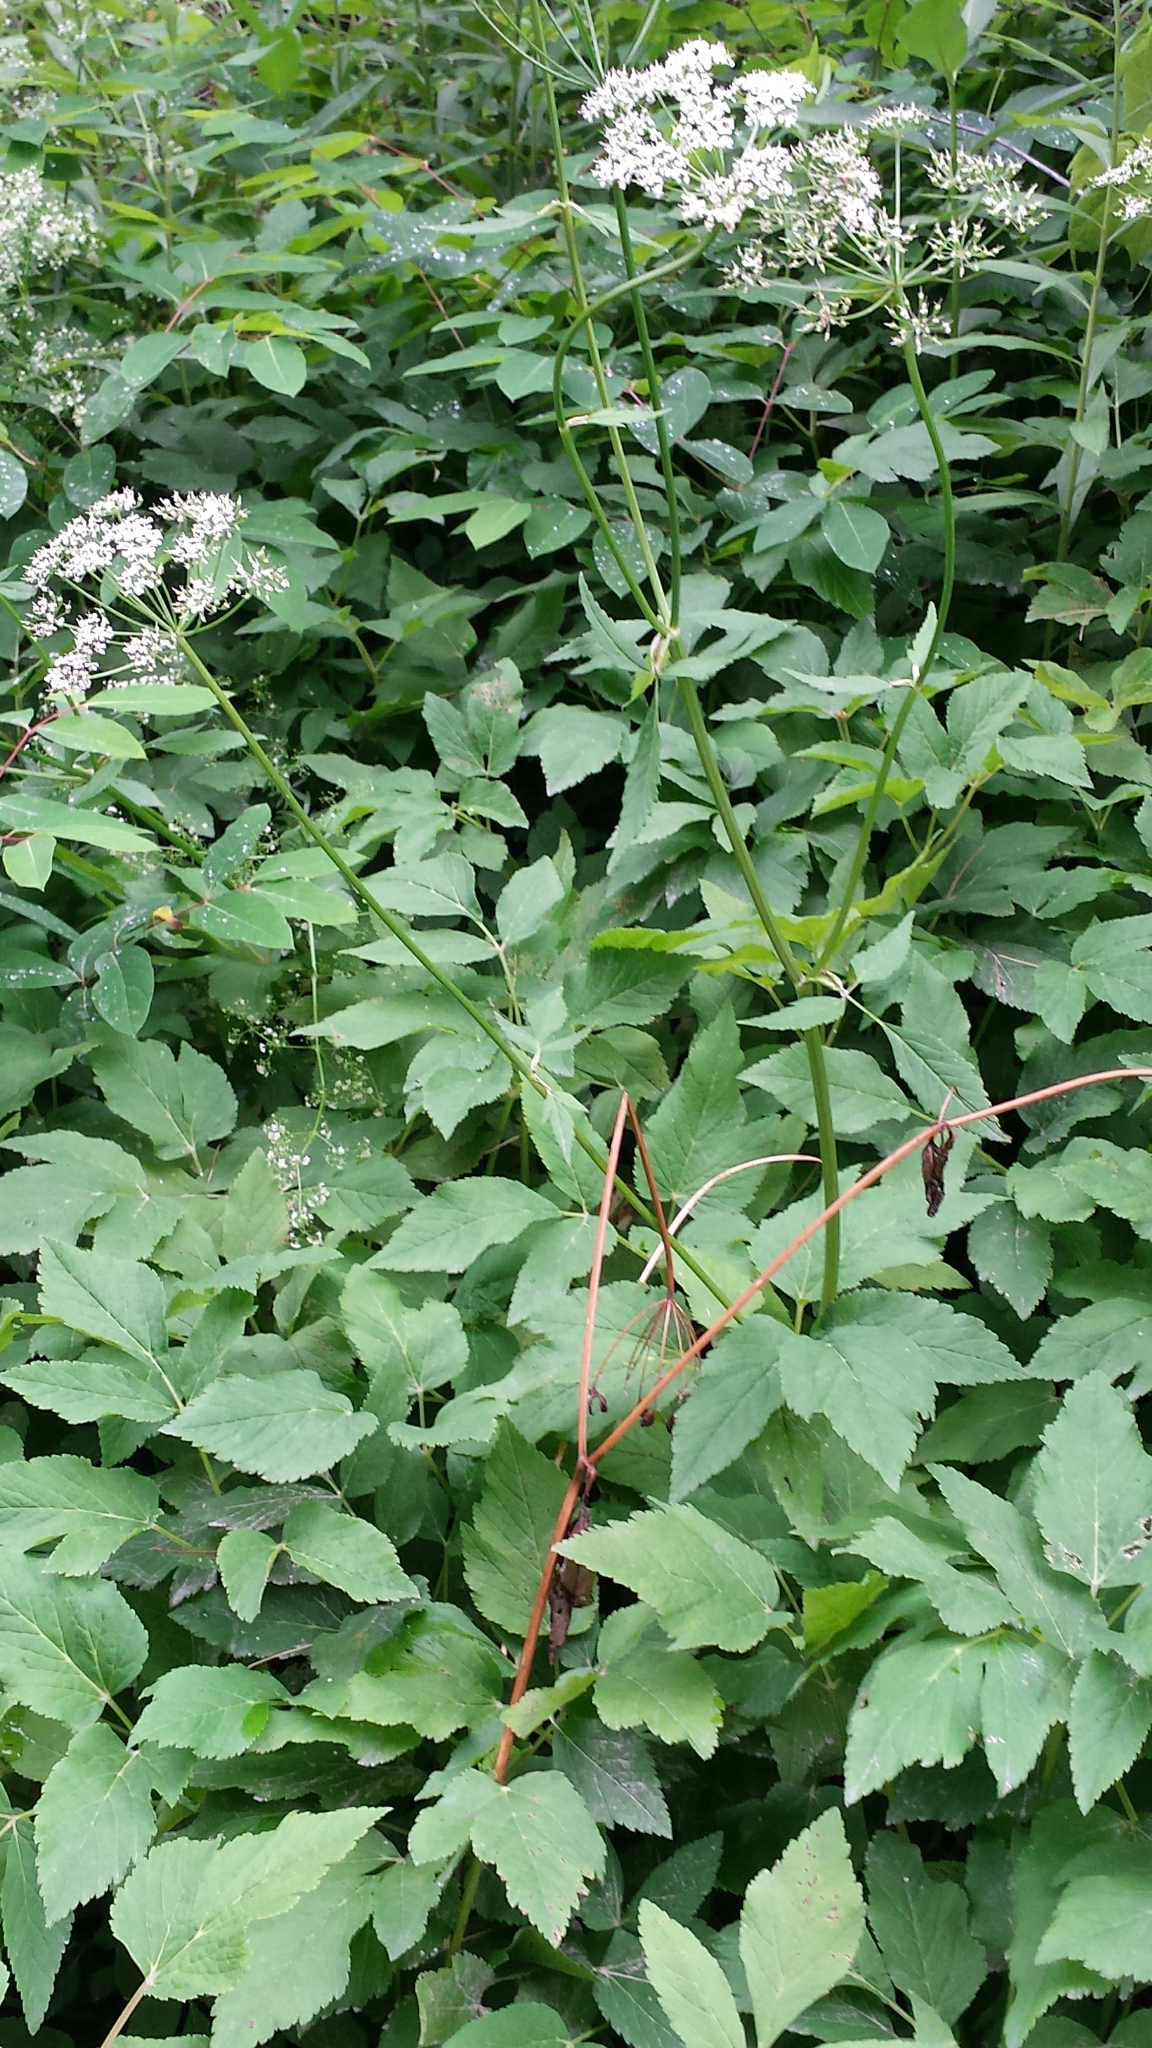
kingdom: Plantae
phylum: Tracheophyta
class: Magnoliopsida
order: Apiales
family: Apiaceae
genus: Aegopodium
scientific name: Aegopodium podagraria
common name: Ground-elder
